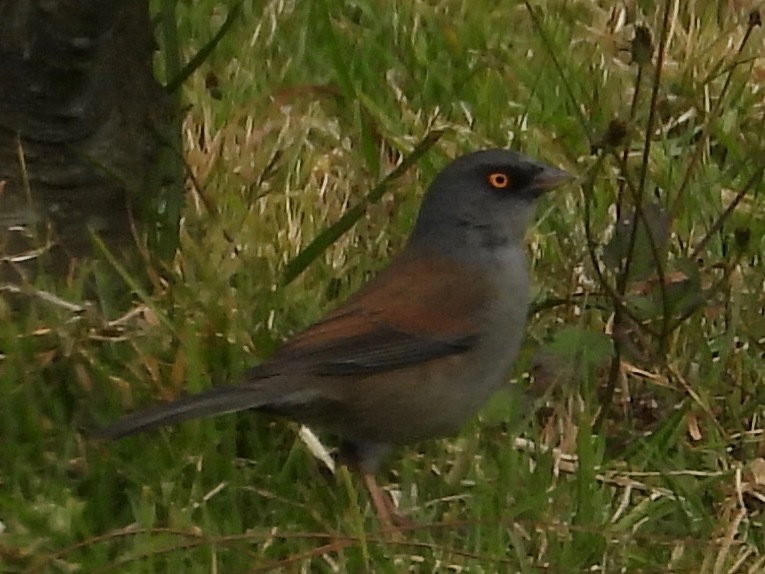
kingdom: Animalia
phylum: Chordata
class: Aves
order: Passeriformes
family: Passerellidae
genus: Junco
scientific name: Junco phaeonotus
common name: Yellow-eyed junco
